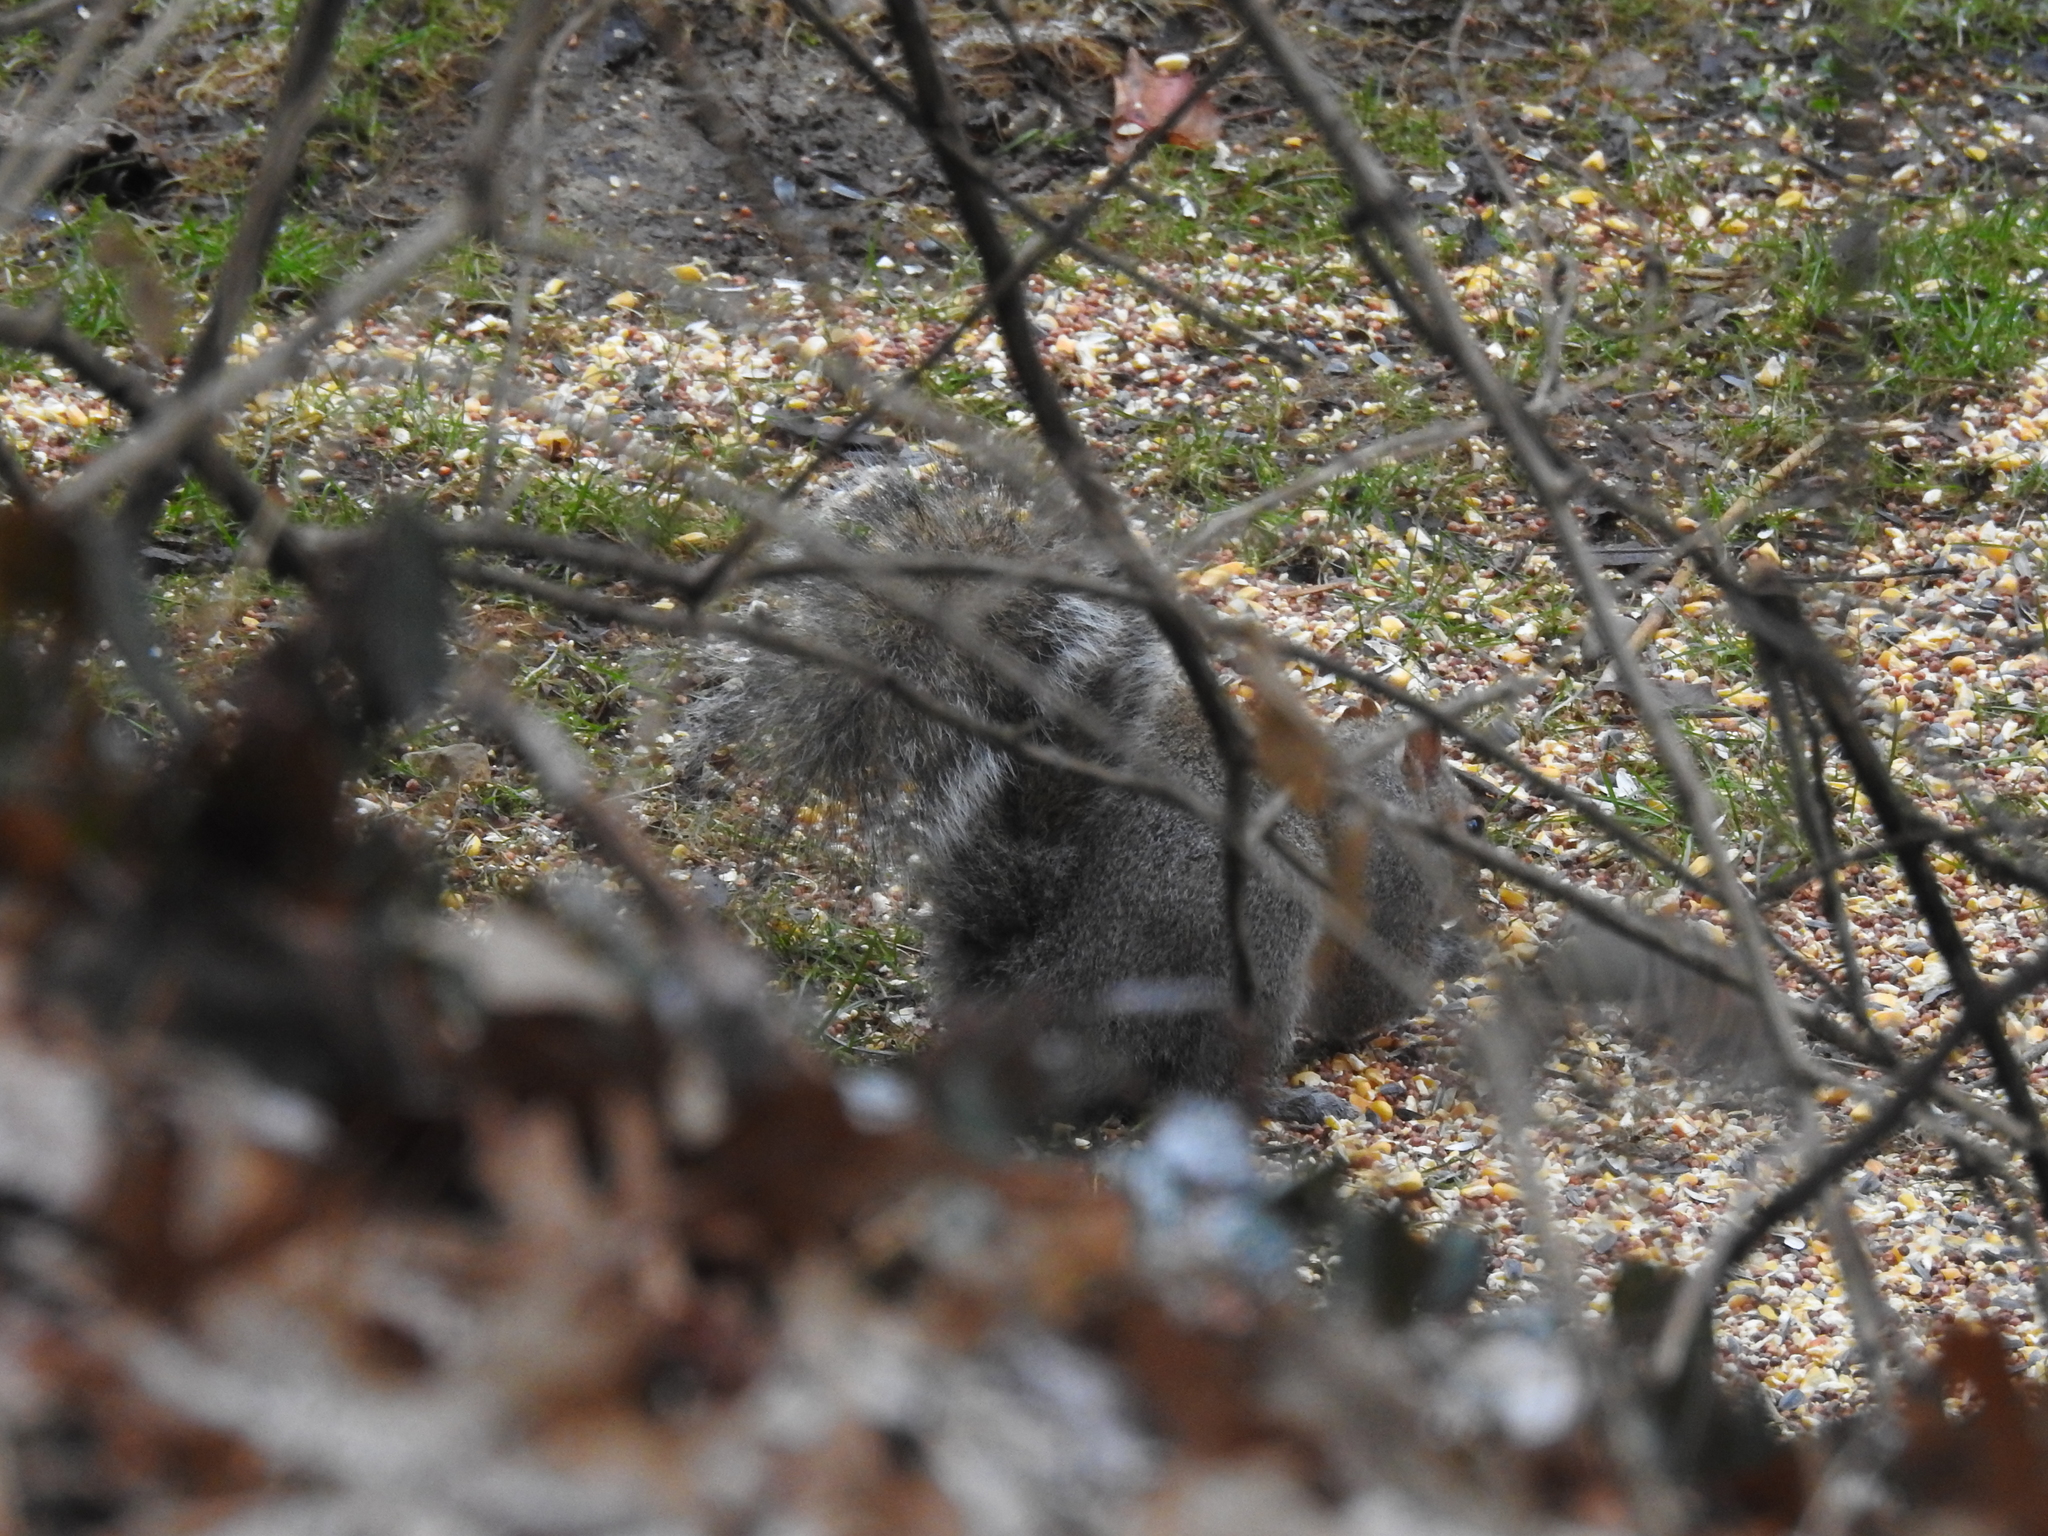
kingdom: Animalia
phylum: Chordata
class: Mammalia
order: Rodentia
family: Sciuridae
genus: Sciurus
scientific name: Sciurus carolinensis
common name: Eastern gray squirrel
